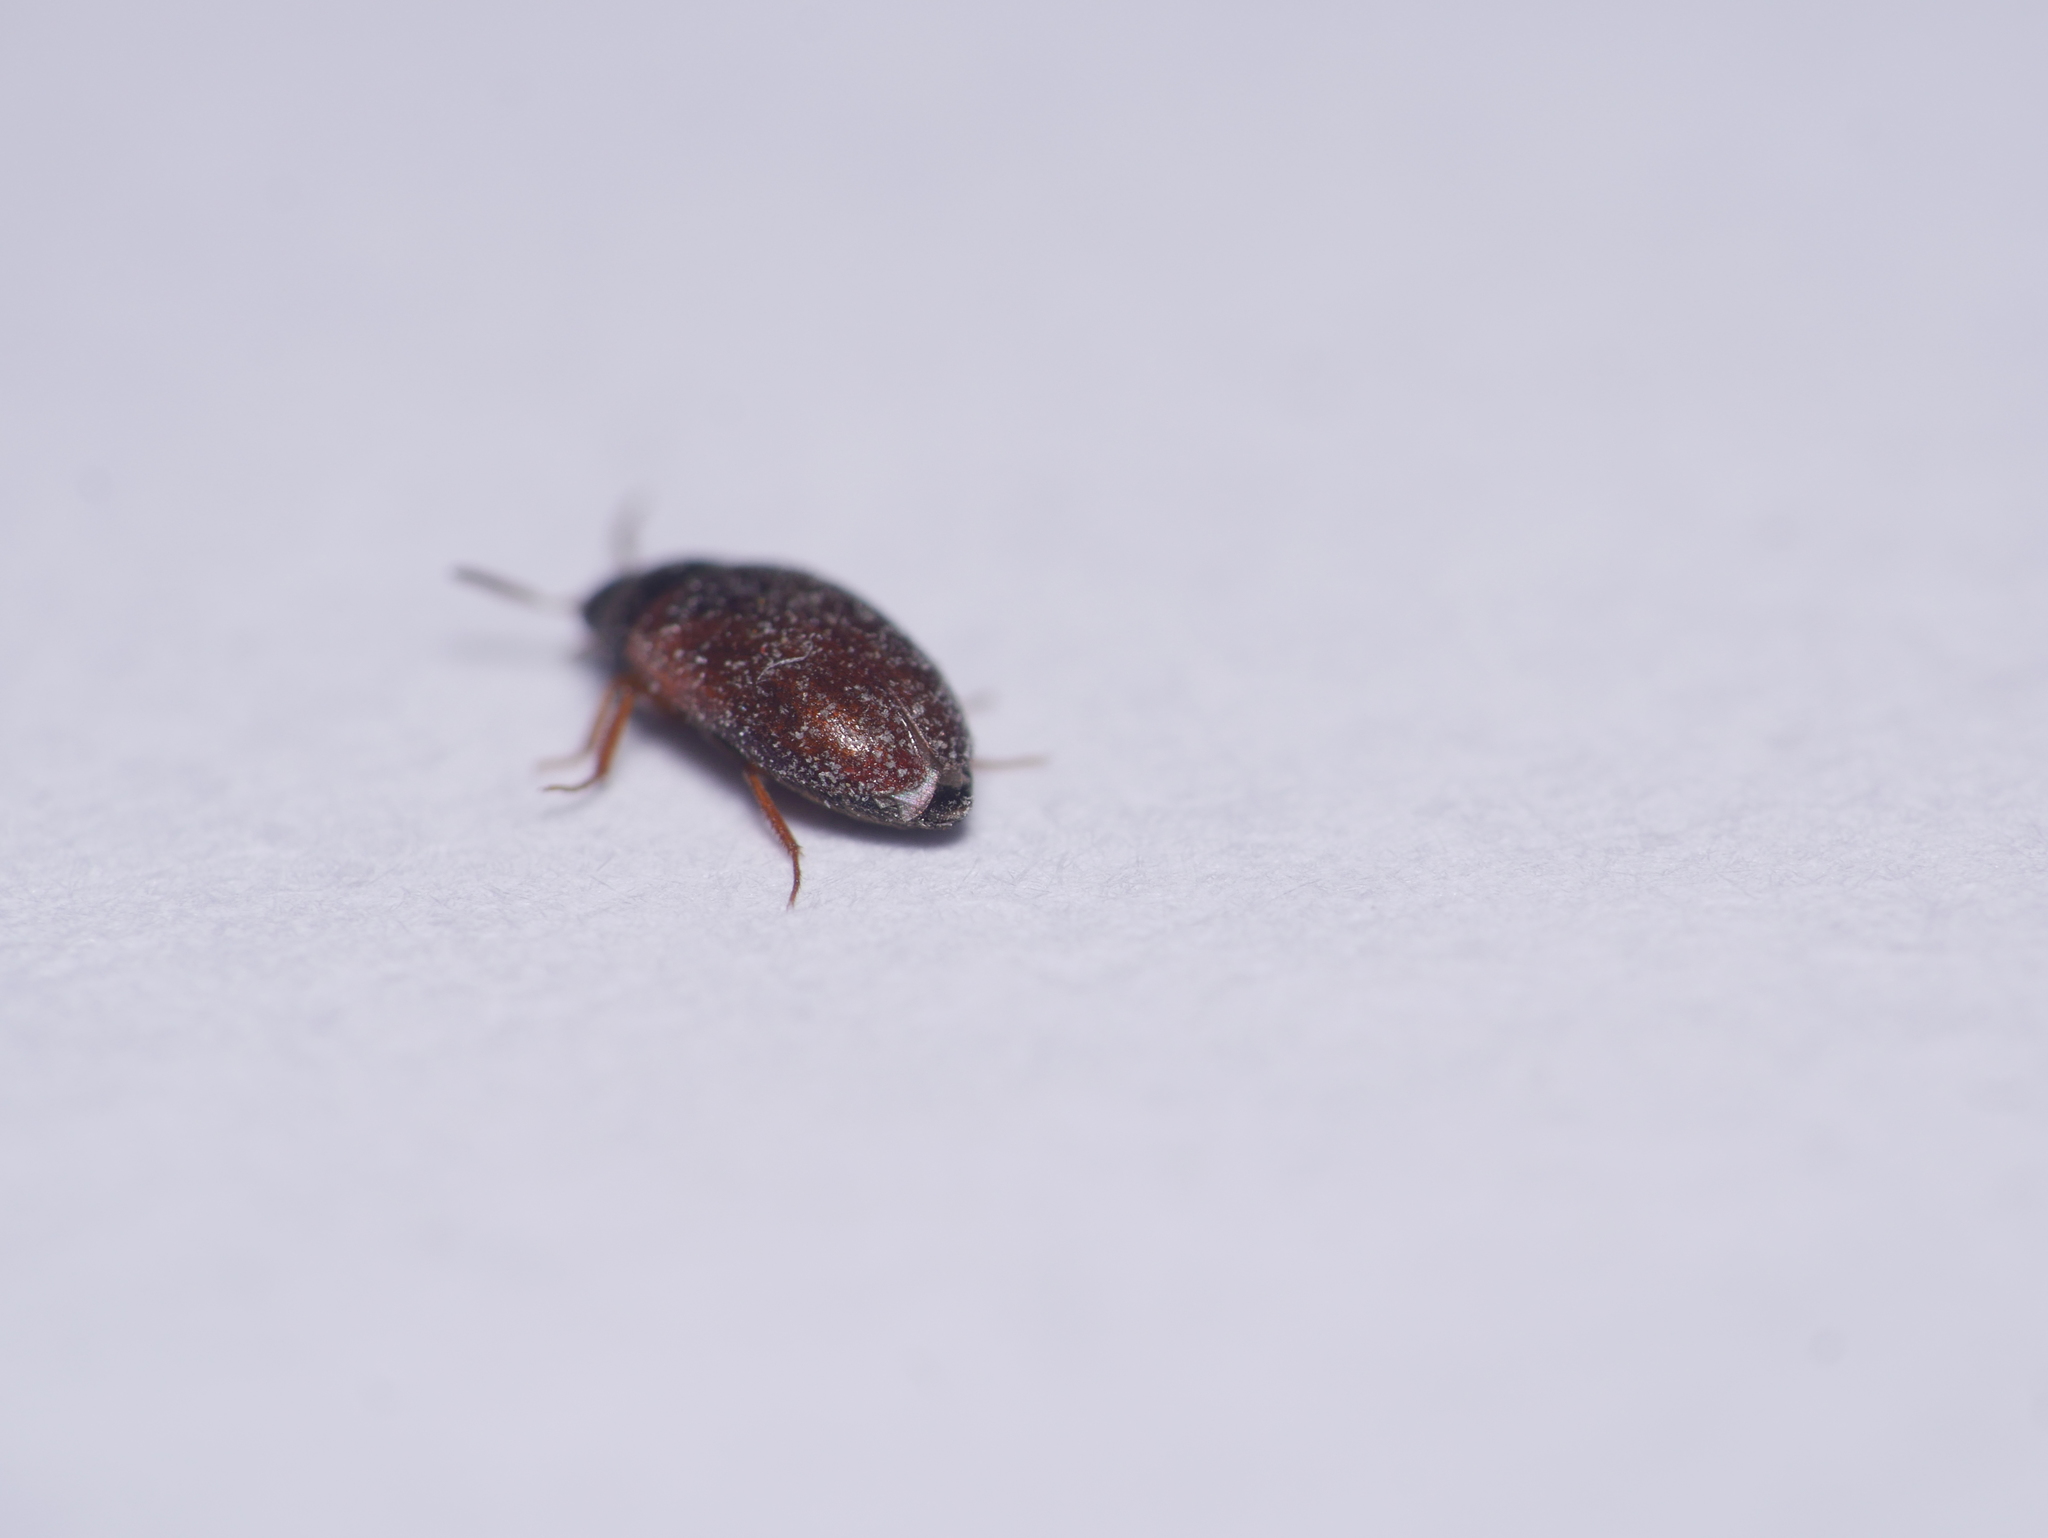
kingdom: Animalia
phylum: Arthropoda
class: Insecta
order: Coleoptera
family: Dermestidae
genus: Attagenus
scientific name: Attagenus smirnovi
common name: Brown carpet beetle
